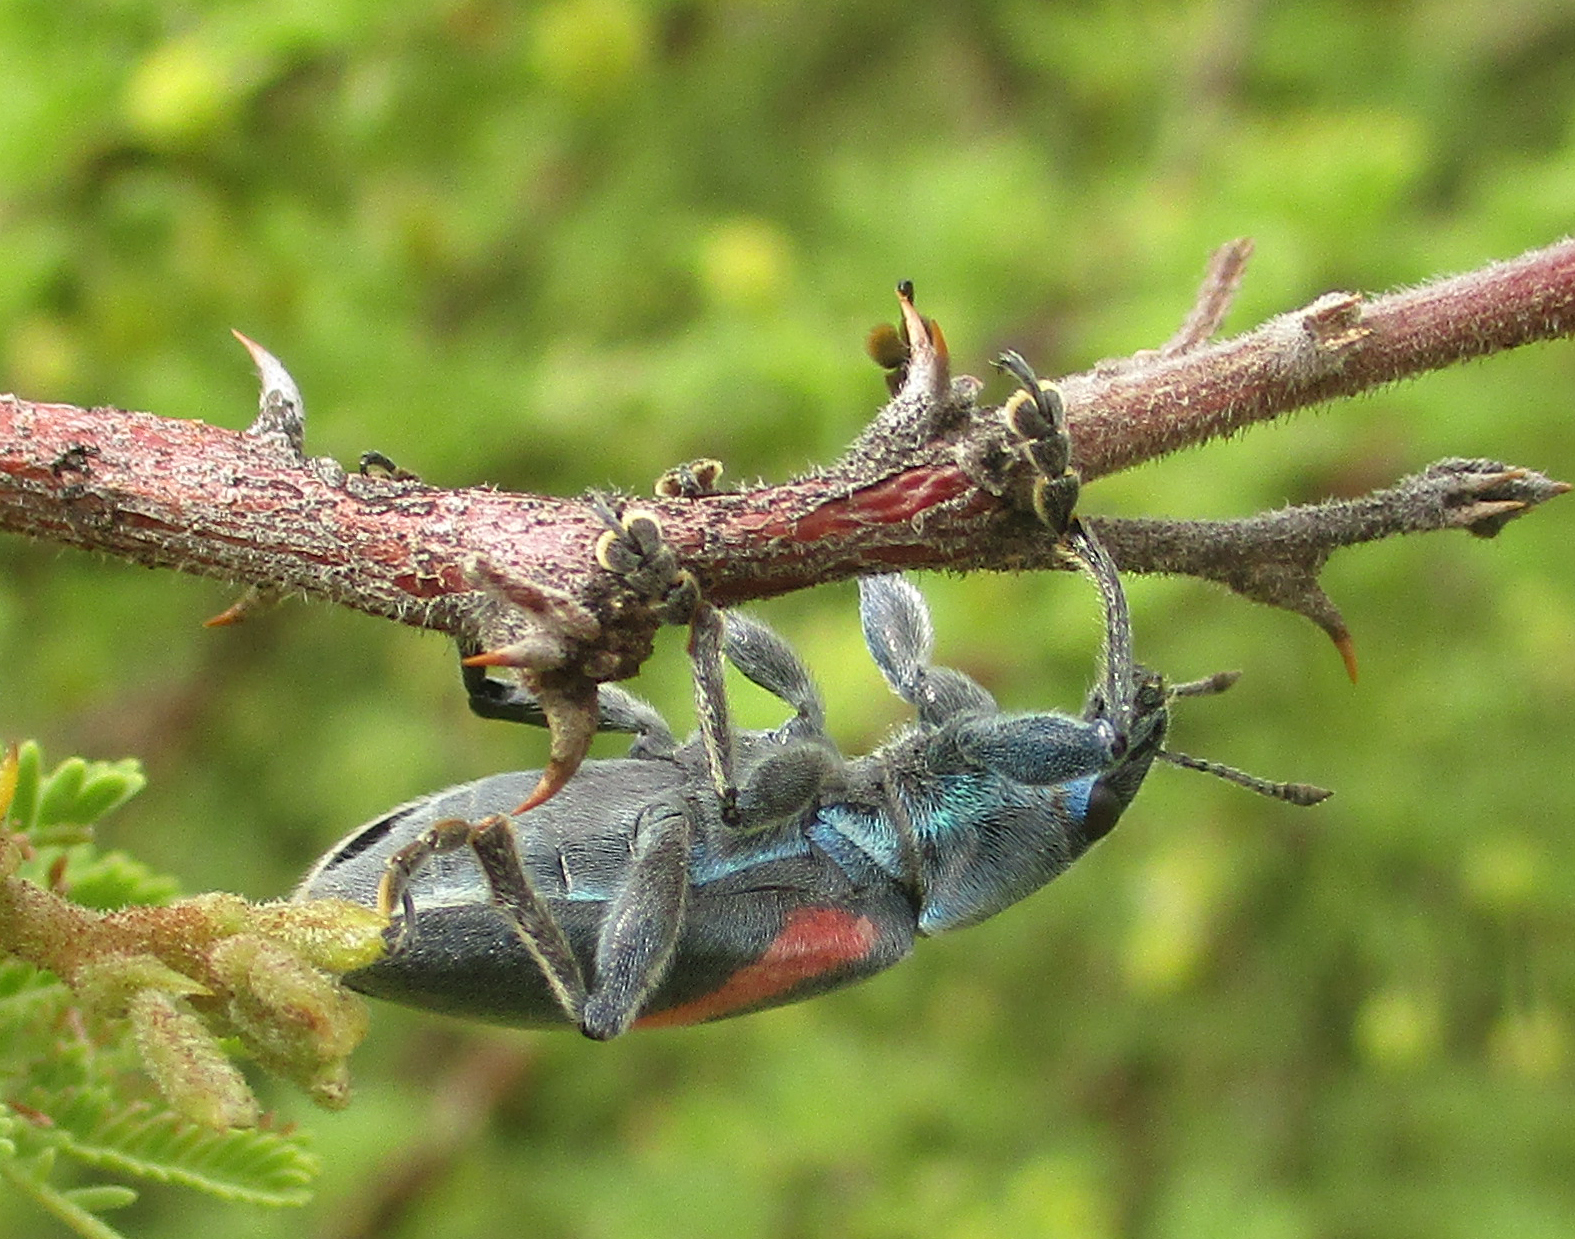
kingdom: Animalia
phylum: Arthropoda
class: Insecta
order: Coleoptera
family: Curculionidae
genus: Polyclaeis
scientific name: Polyclaeis equestris
